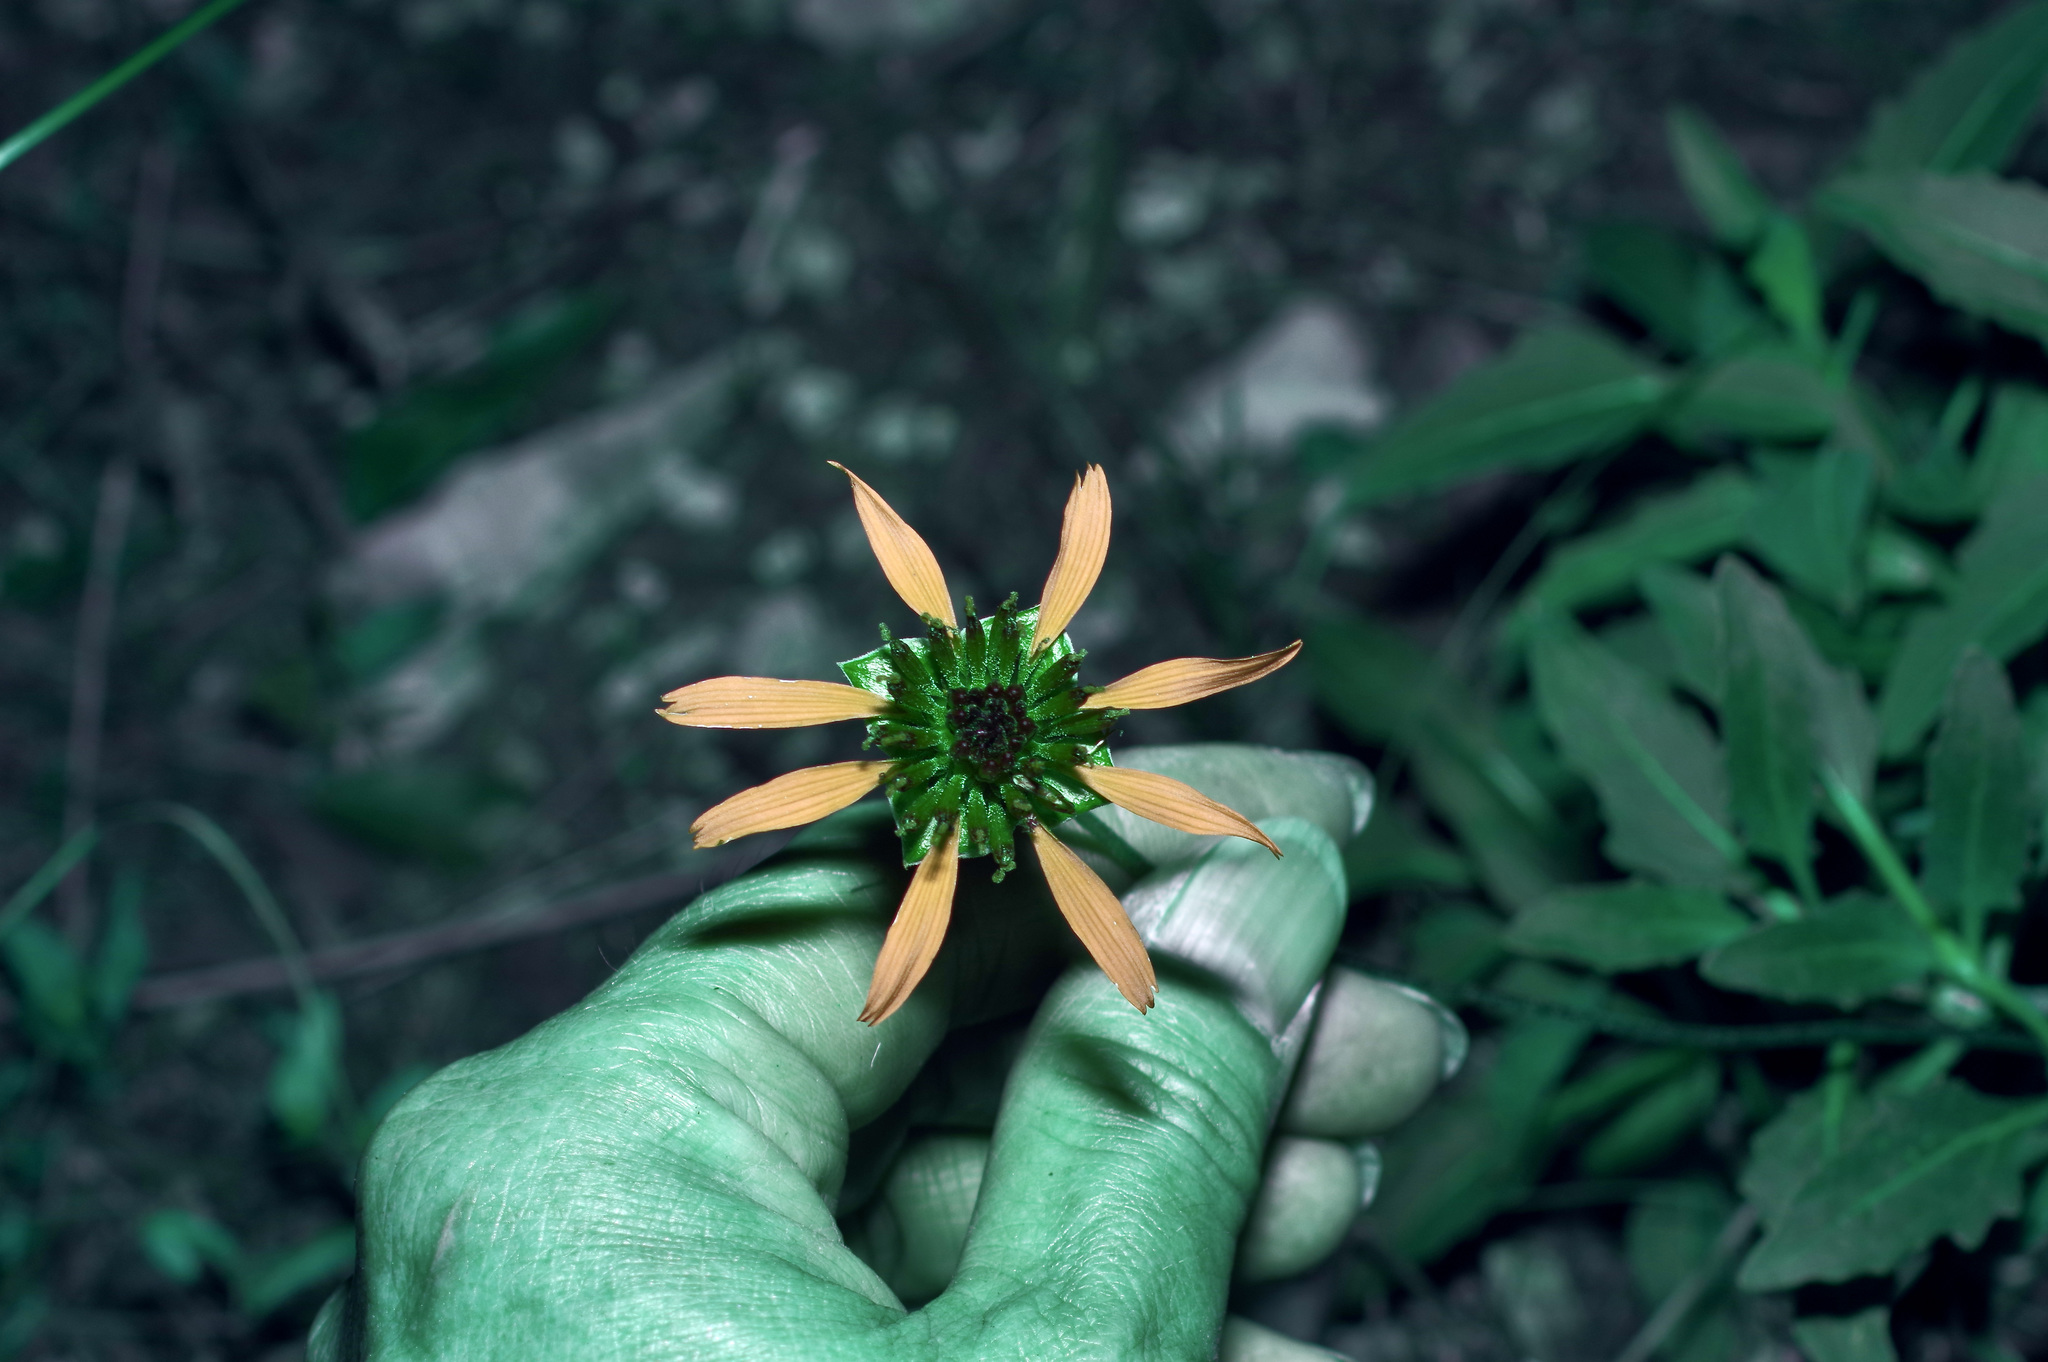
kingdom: Plantae
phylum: Tracheophyta
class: Magnoliopsida
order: Asterales
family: Asteraceae
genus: Tetragonotheca
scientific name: Tetragonotheca texana
